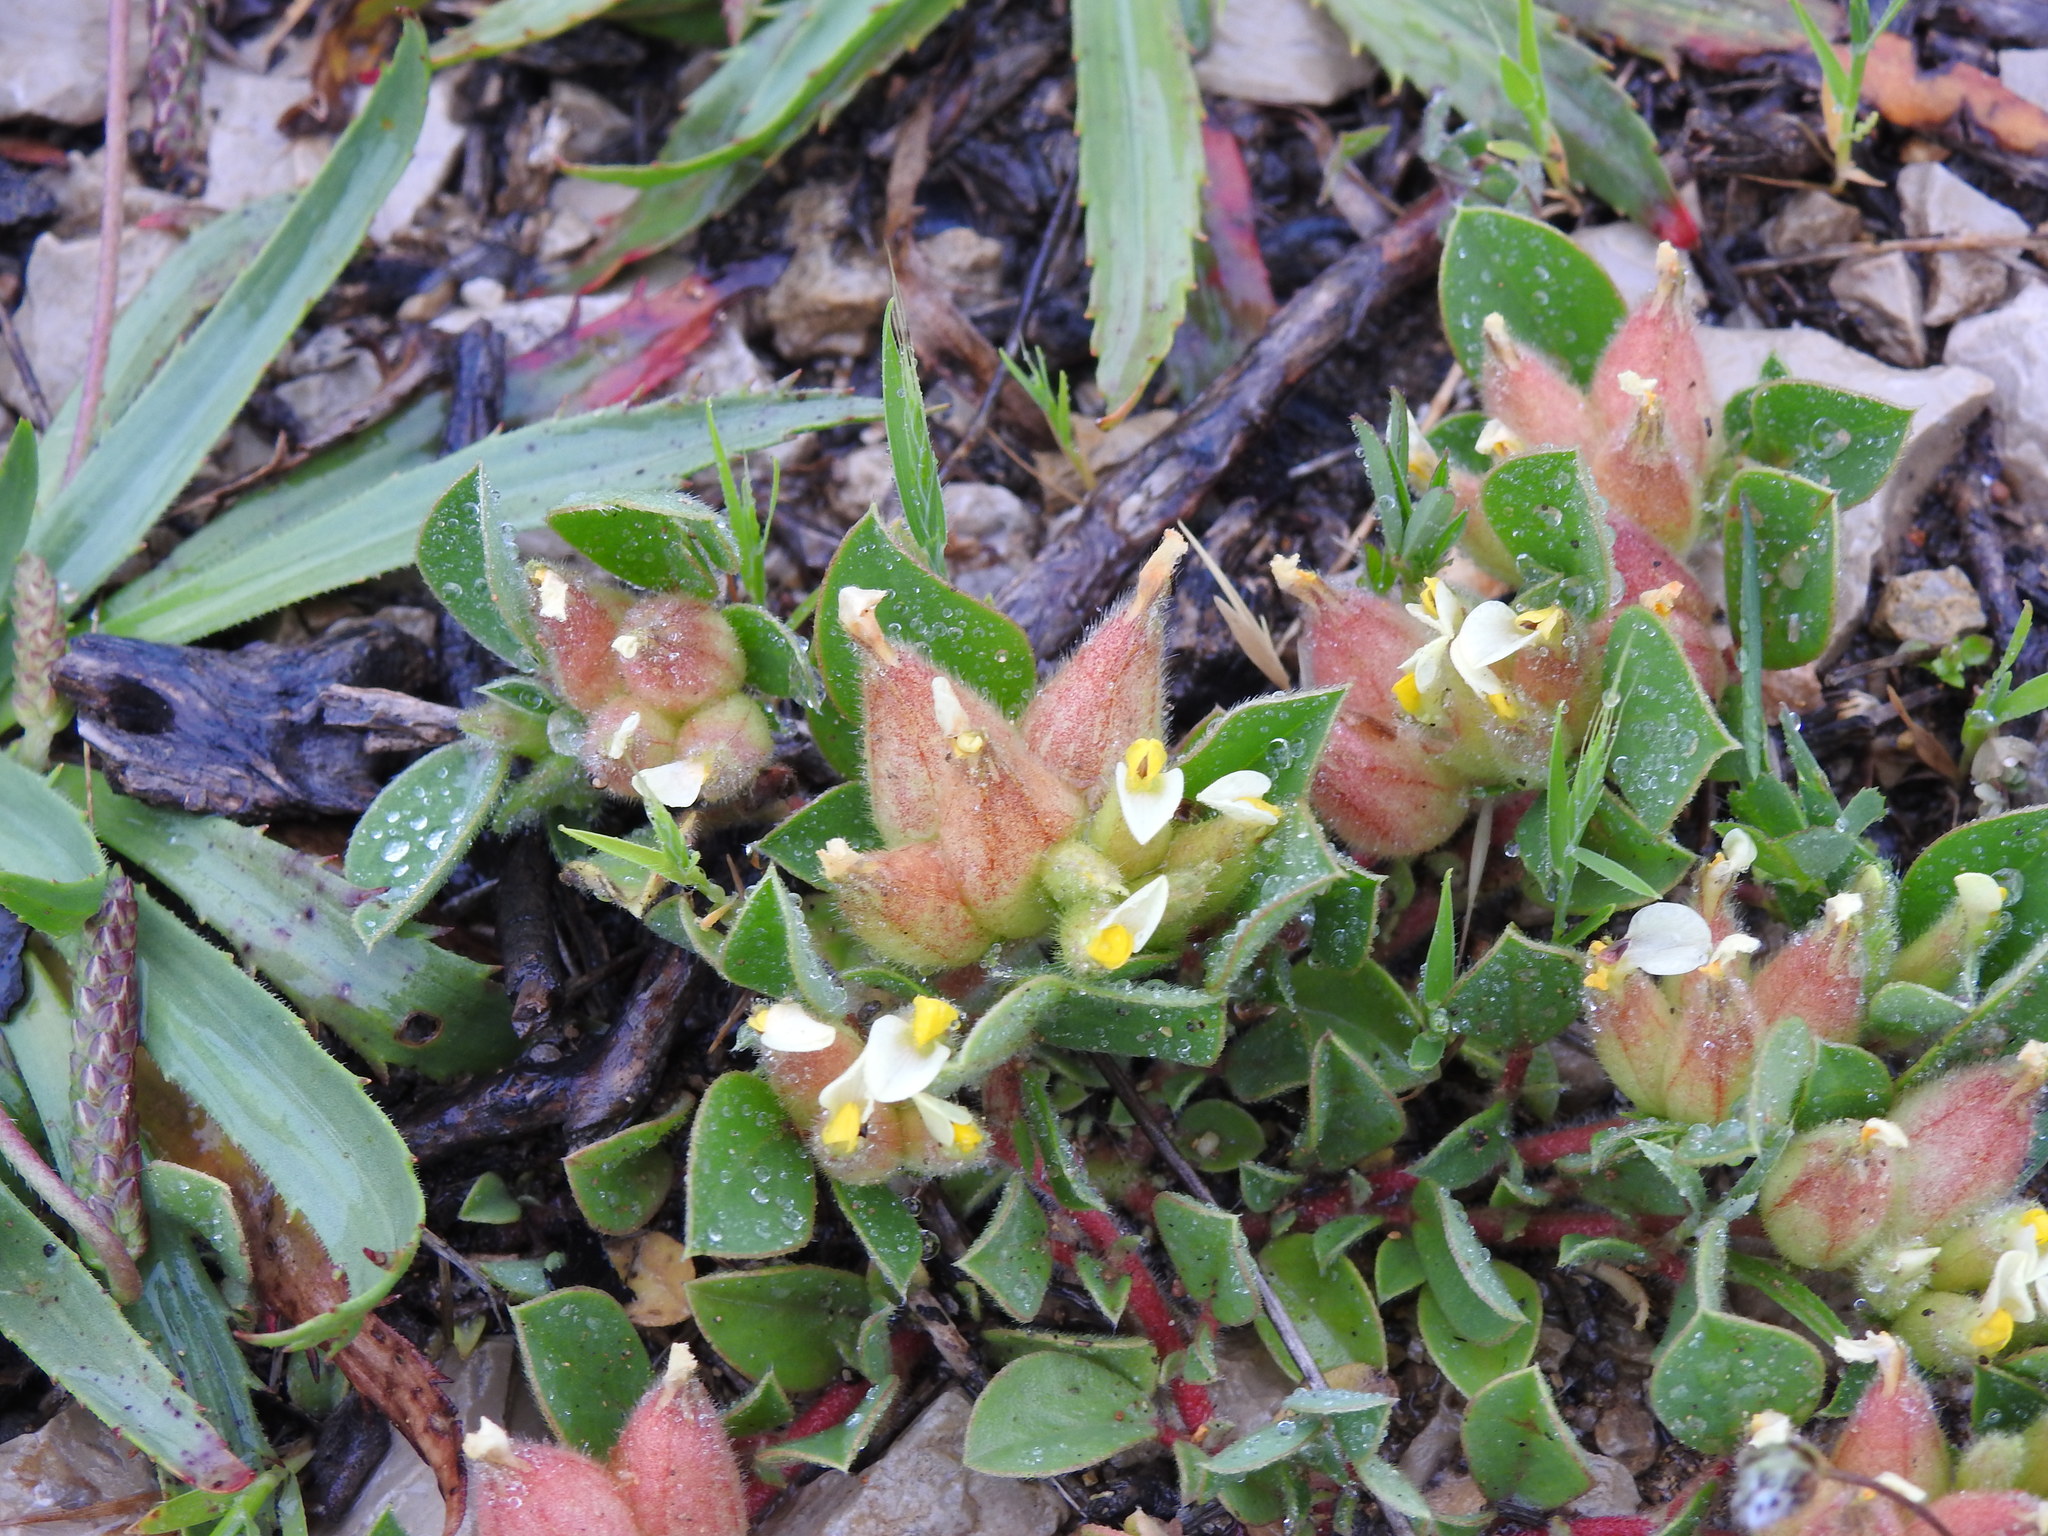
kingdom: Plantae
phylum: Tracheophyta
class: Magnoliopsida
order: Fabales
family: Fabaceae
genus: Tripodion
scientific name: Tripodion tetraphyllum
